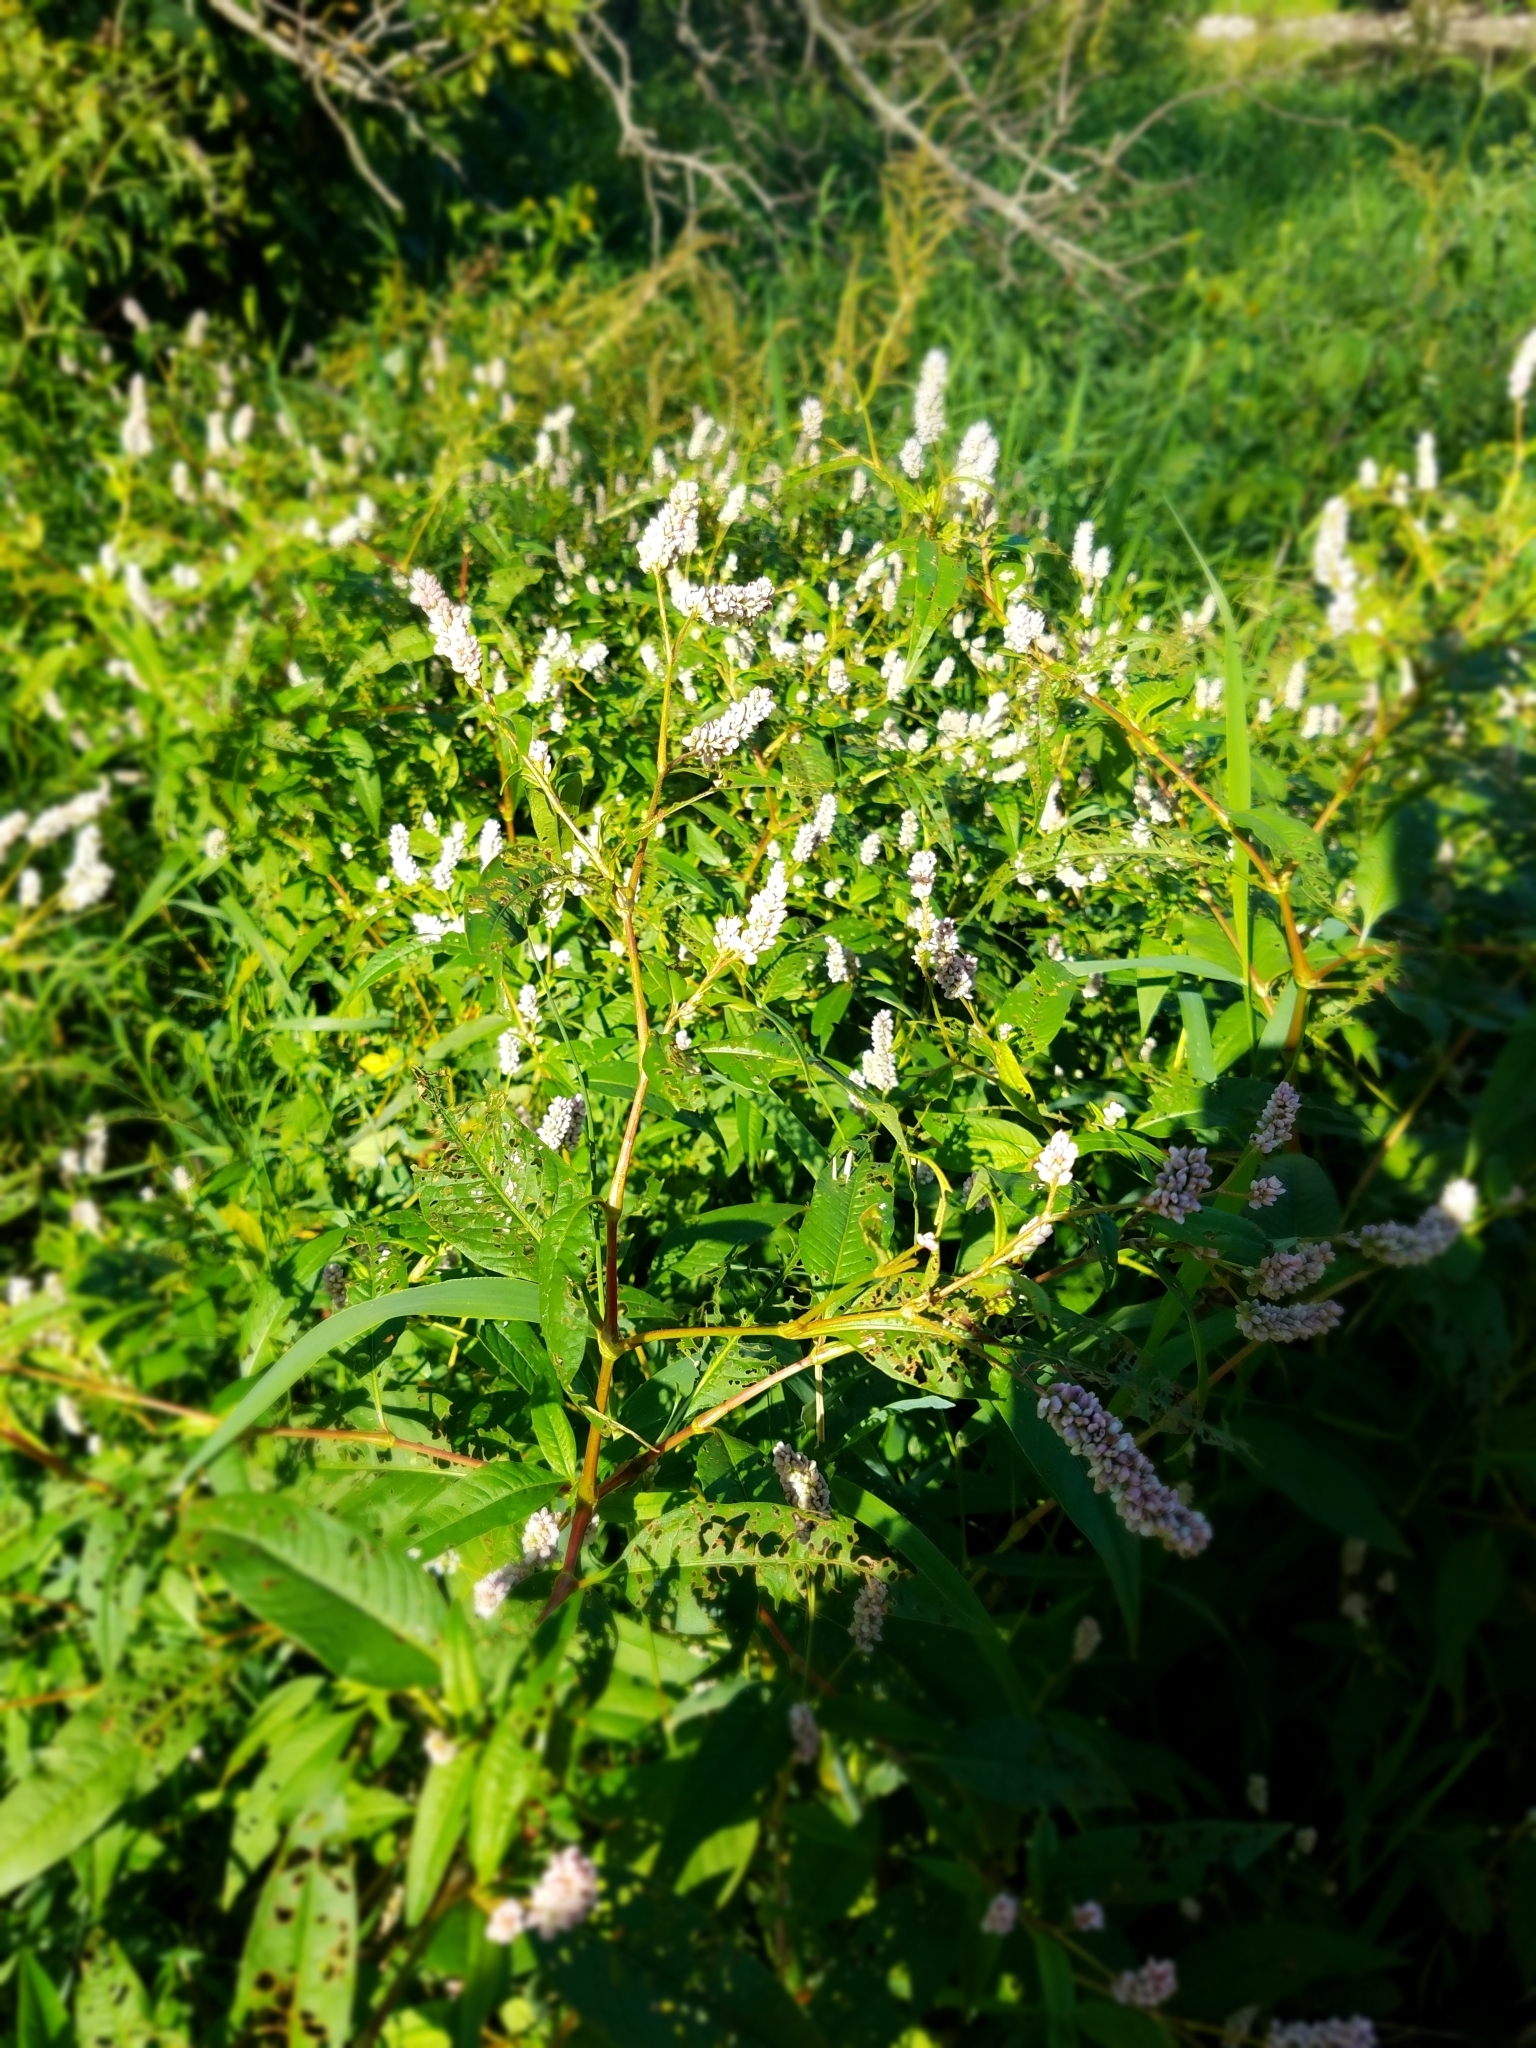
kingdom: Plantae
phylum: Tracheophyta
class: Magnoliopsida
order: Caryophyllales
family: Polygonaceae
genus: Persicaria
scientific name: Persicaria
